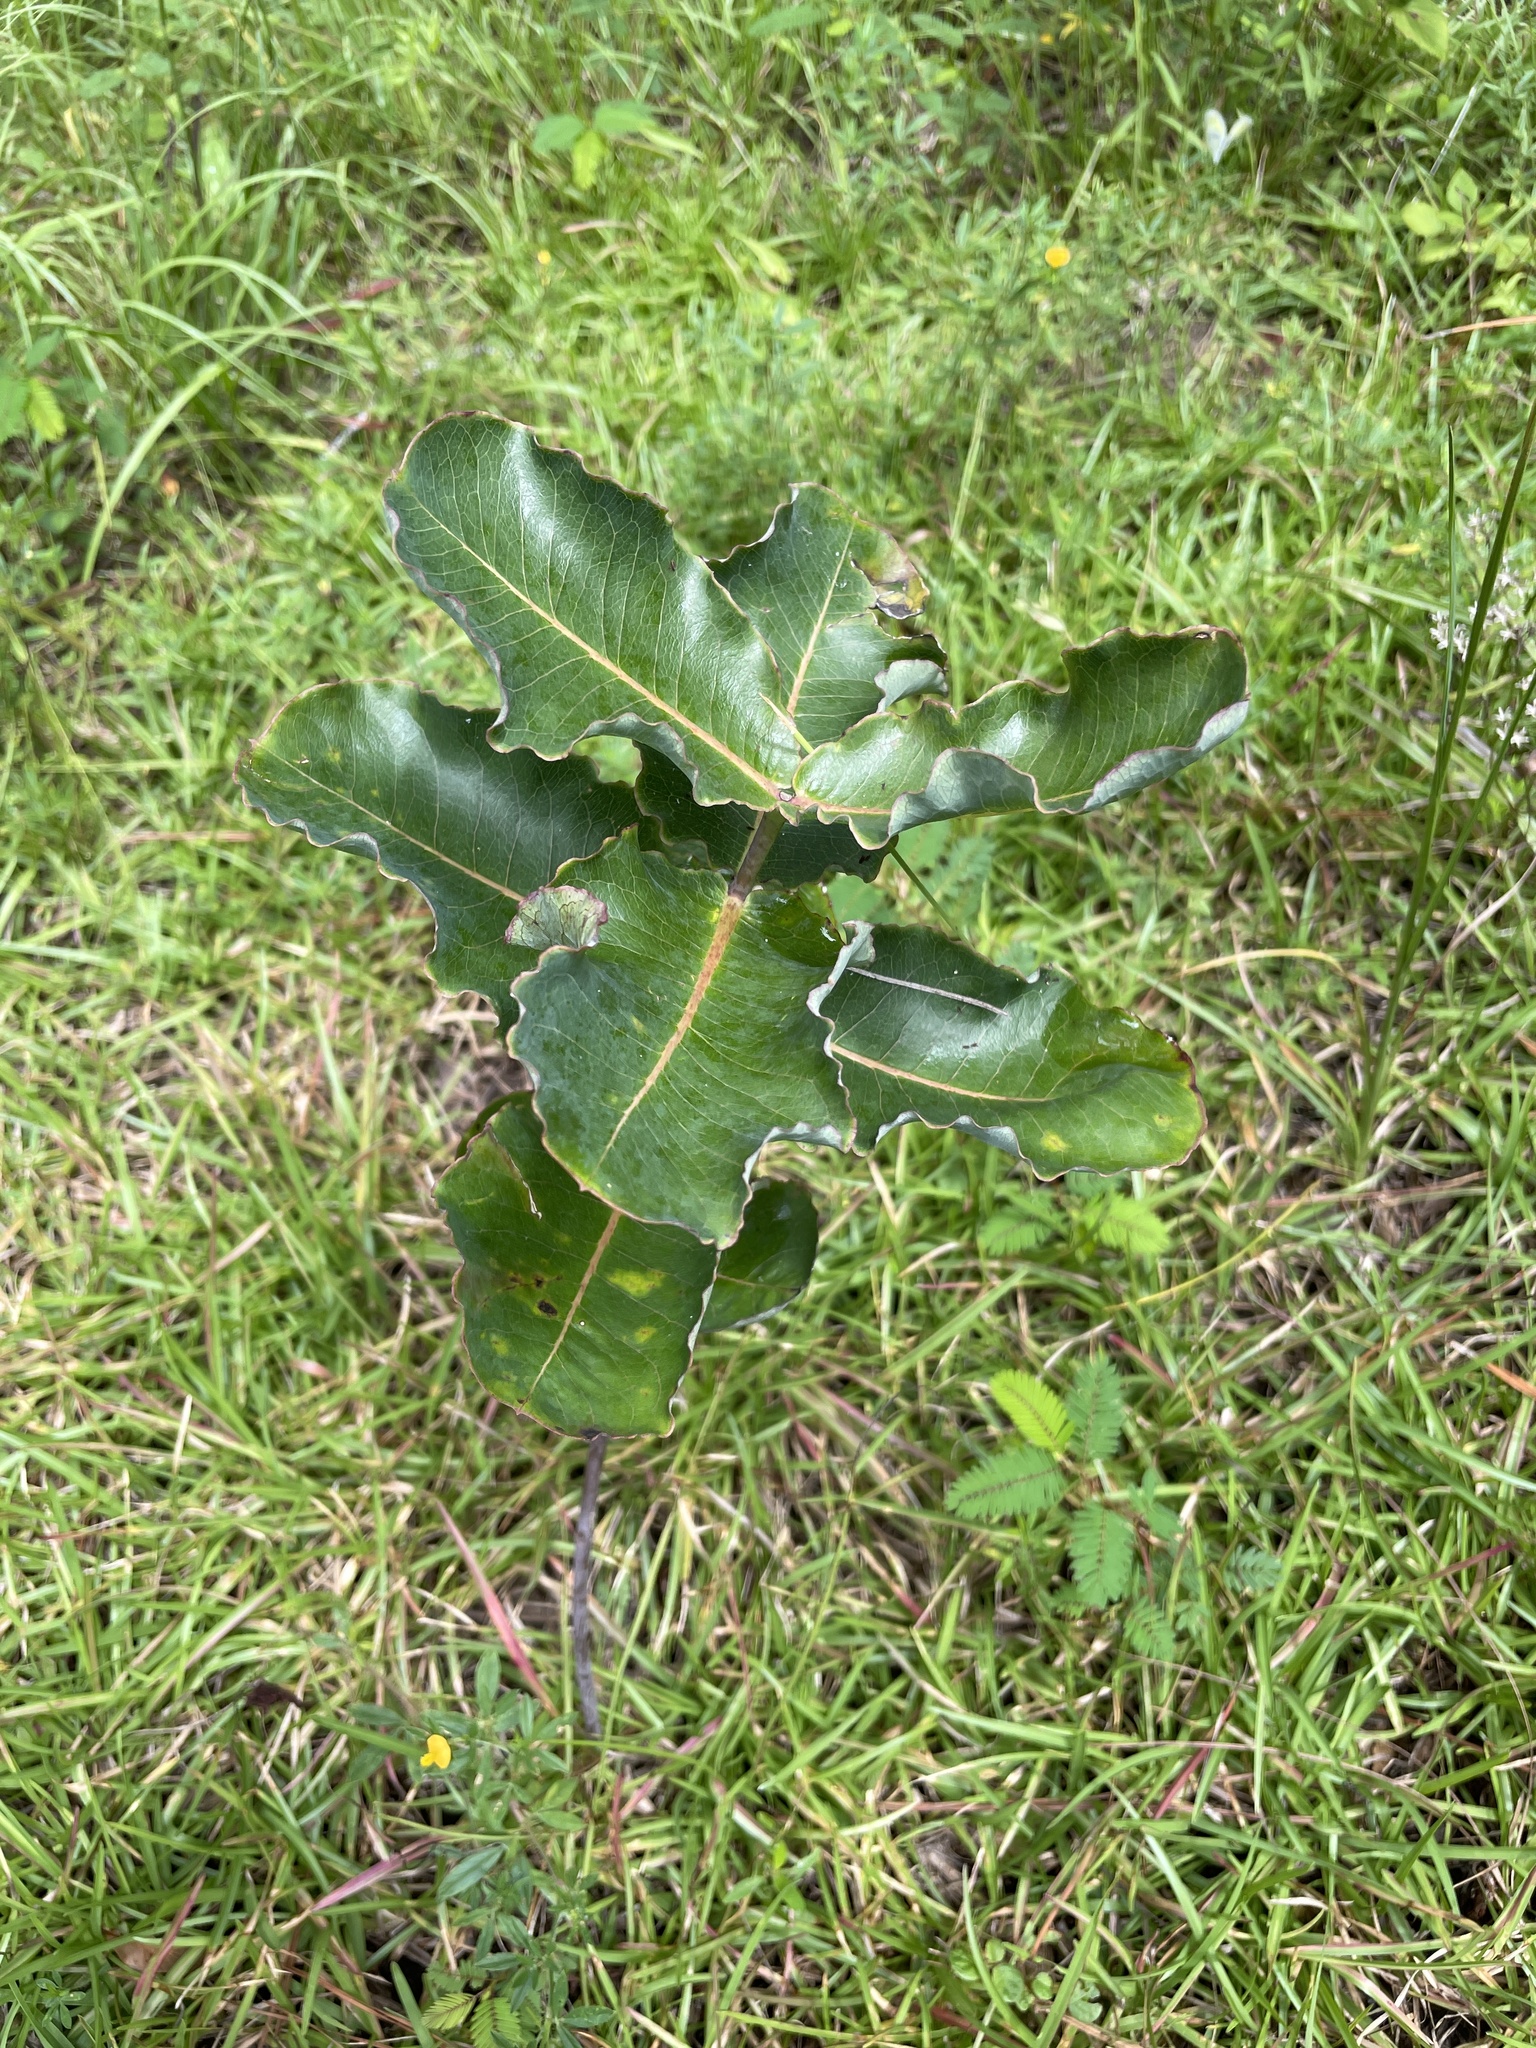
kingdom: Plantae
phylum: Tracheophyta
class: Magnoliopsida
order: Gentianales
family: Apocynaceae
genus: Asclepias
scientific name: Asclepias amplexicaulis
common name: Blunt-leaf milkweed
